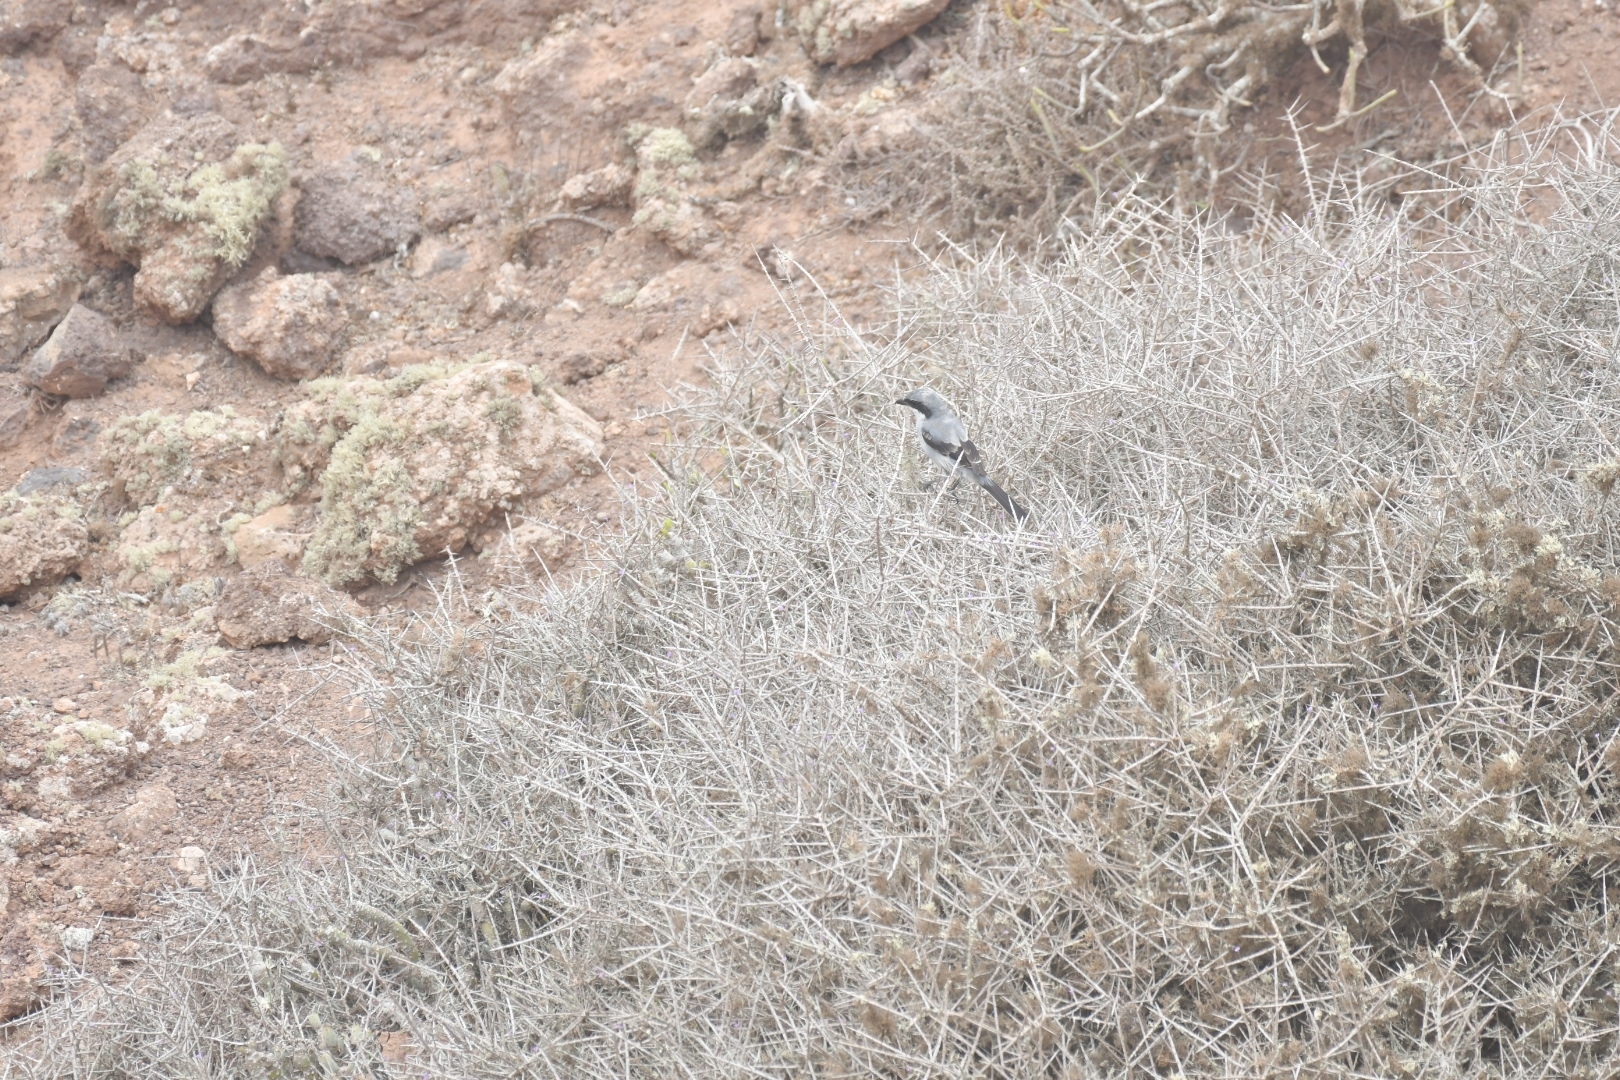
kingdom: Animalia
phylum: Chordata
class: Aves
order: Passeriformes
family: Laniidae
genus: Lanius
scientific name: Lanius excubitor
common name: Great grey shrike
